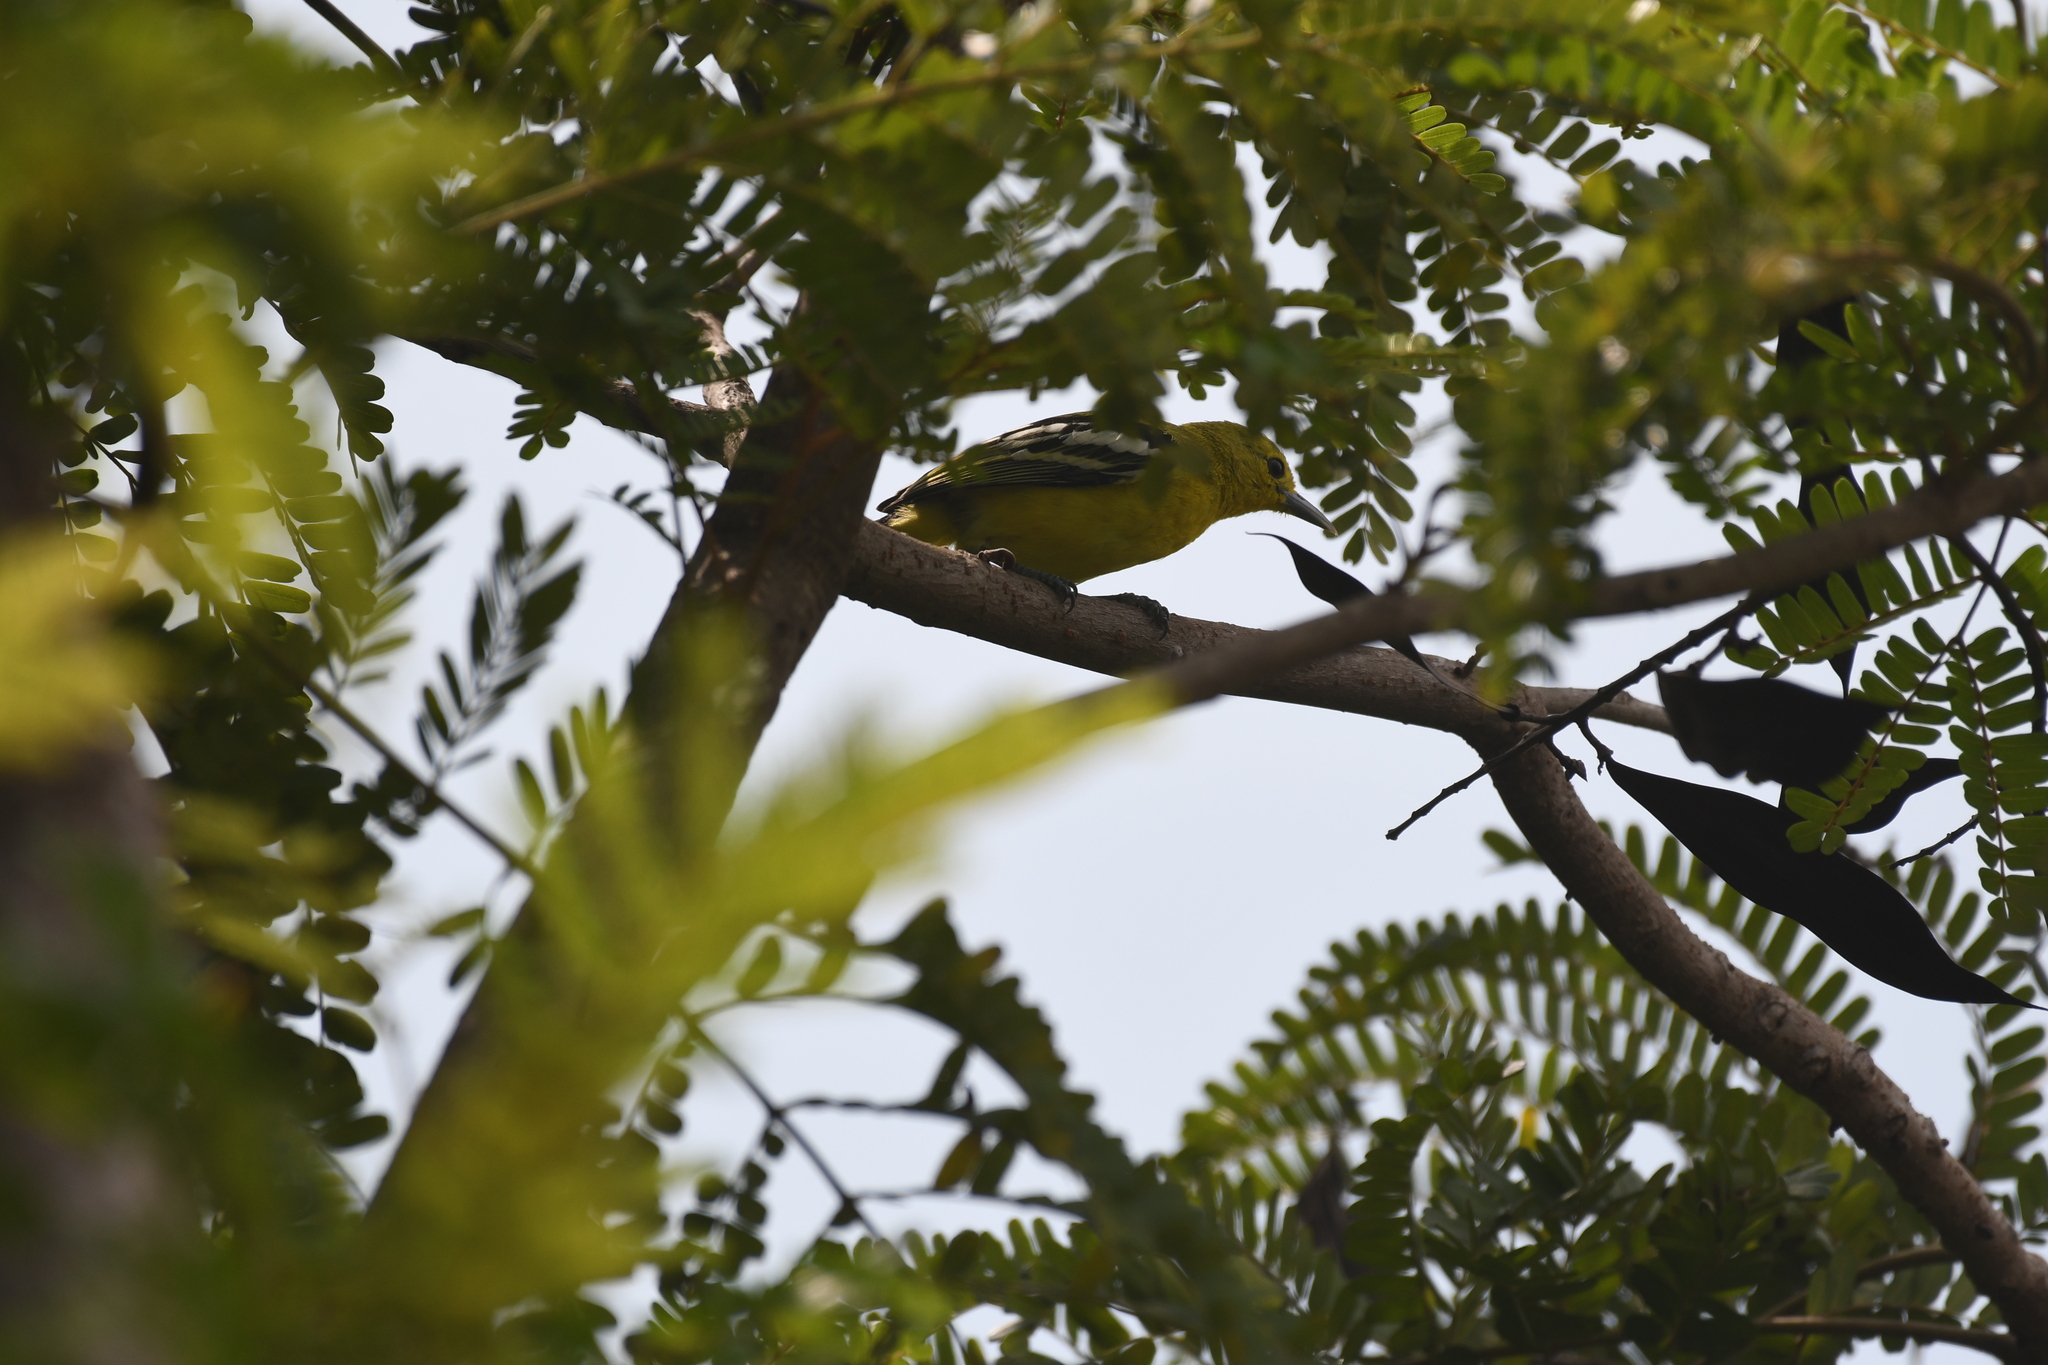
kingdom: Animalia
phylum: Chordata
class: Aves
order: Passeriformes
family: Aegithinidae
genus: Aegithina
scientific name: Aegithina tiphia
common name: Common iora
